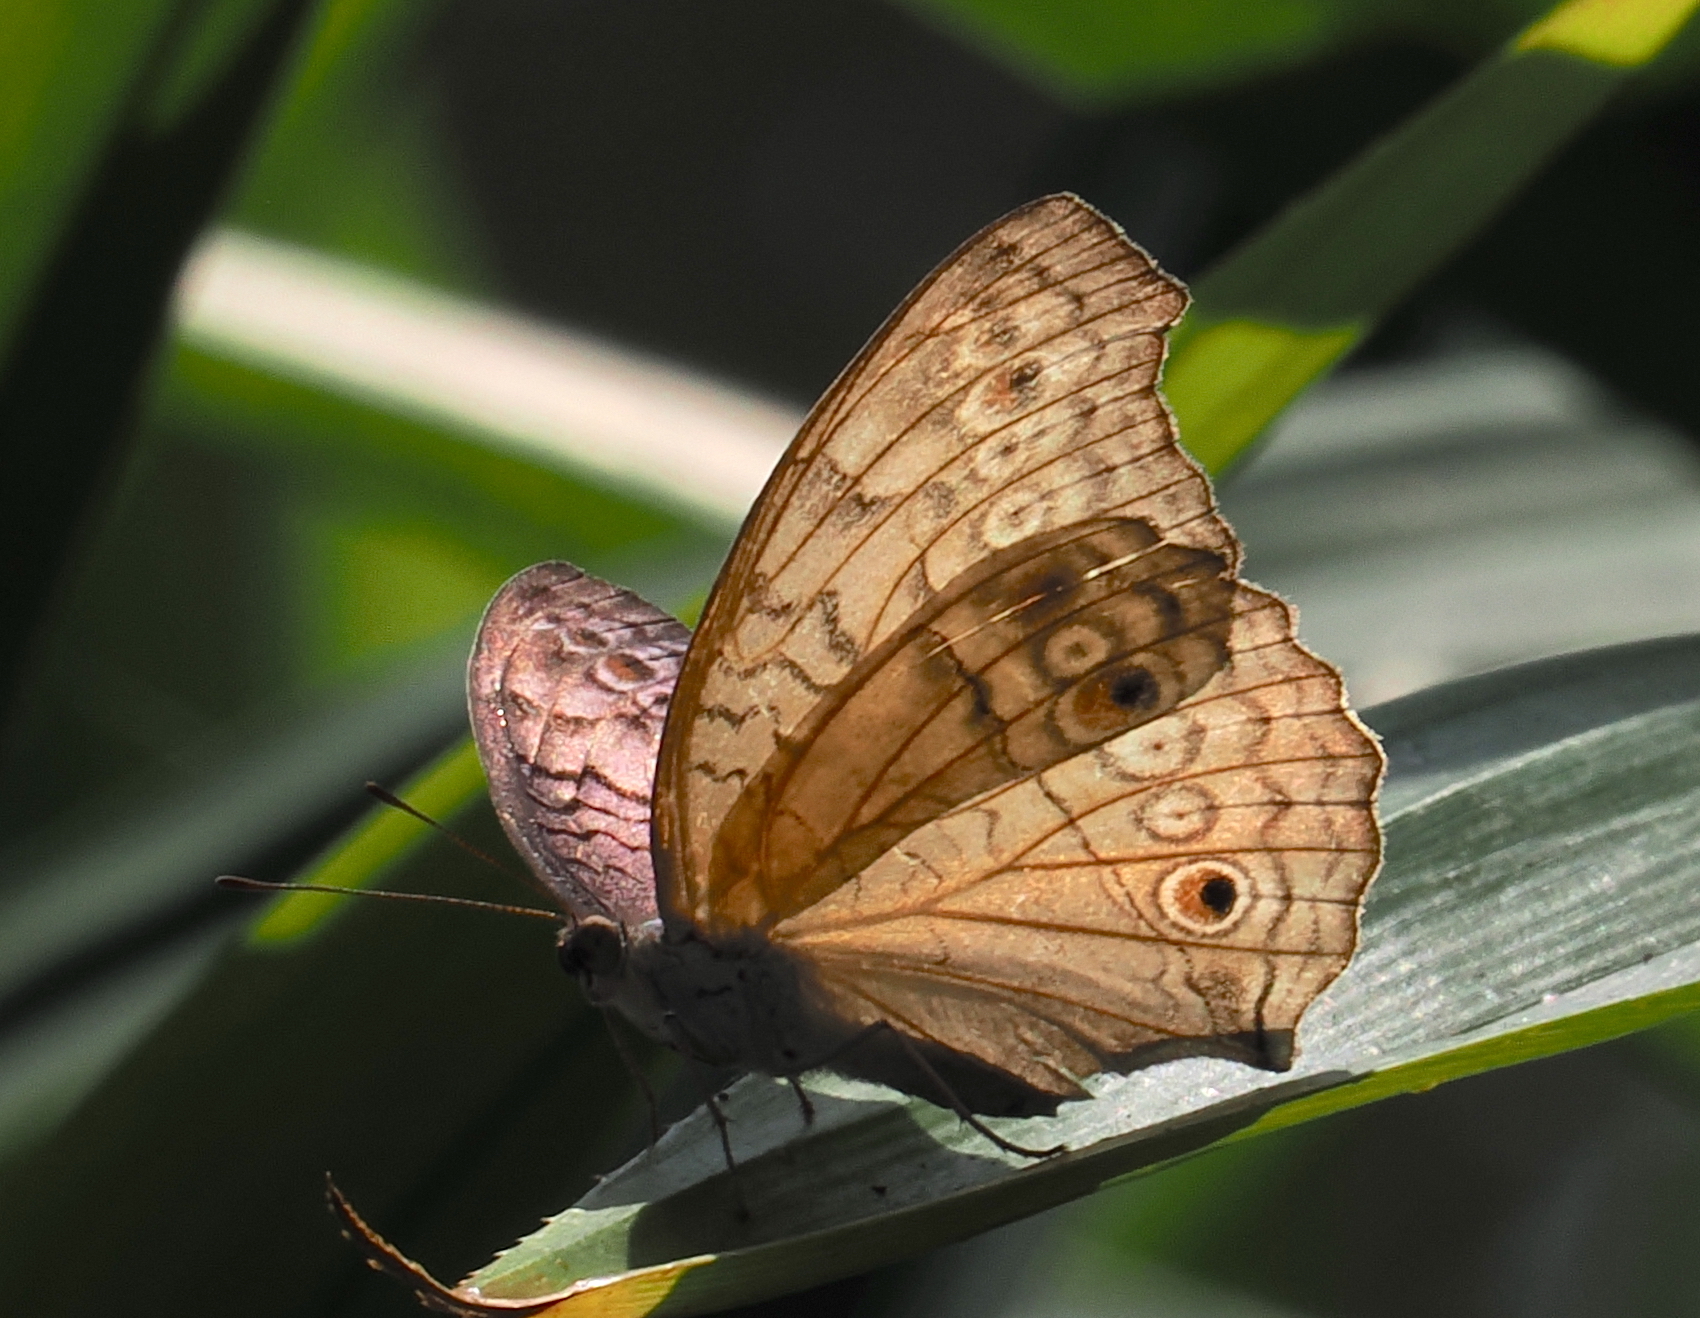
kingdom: Animalia
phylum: Arthropoda
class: Insecta
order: Lepidoptera
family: Nymphalidae
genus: Junonia
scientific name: Junonia atlites
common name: Grey pansy
